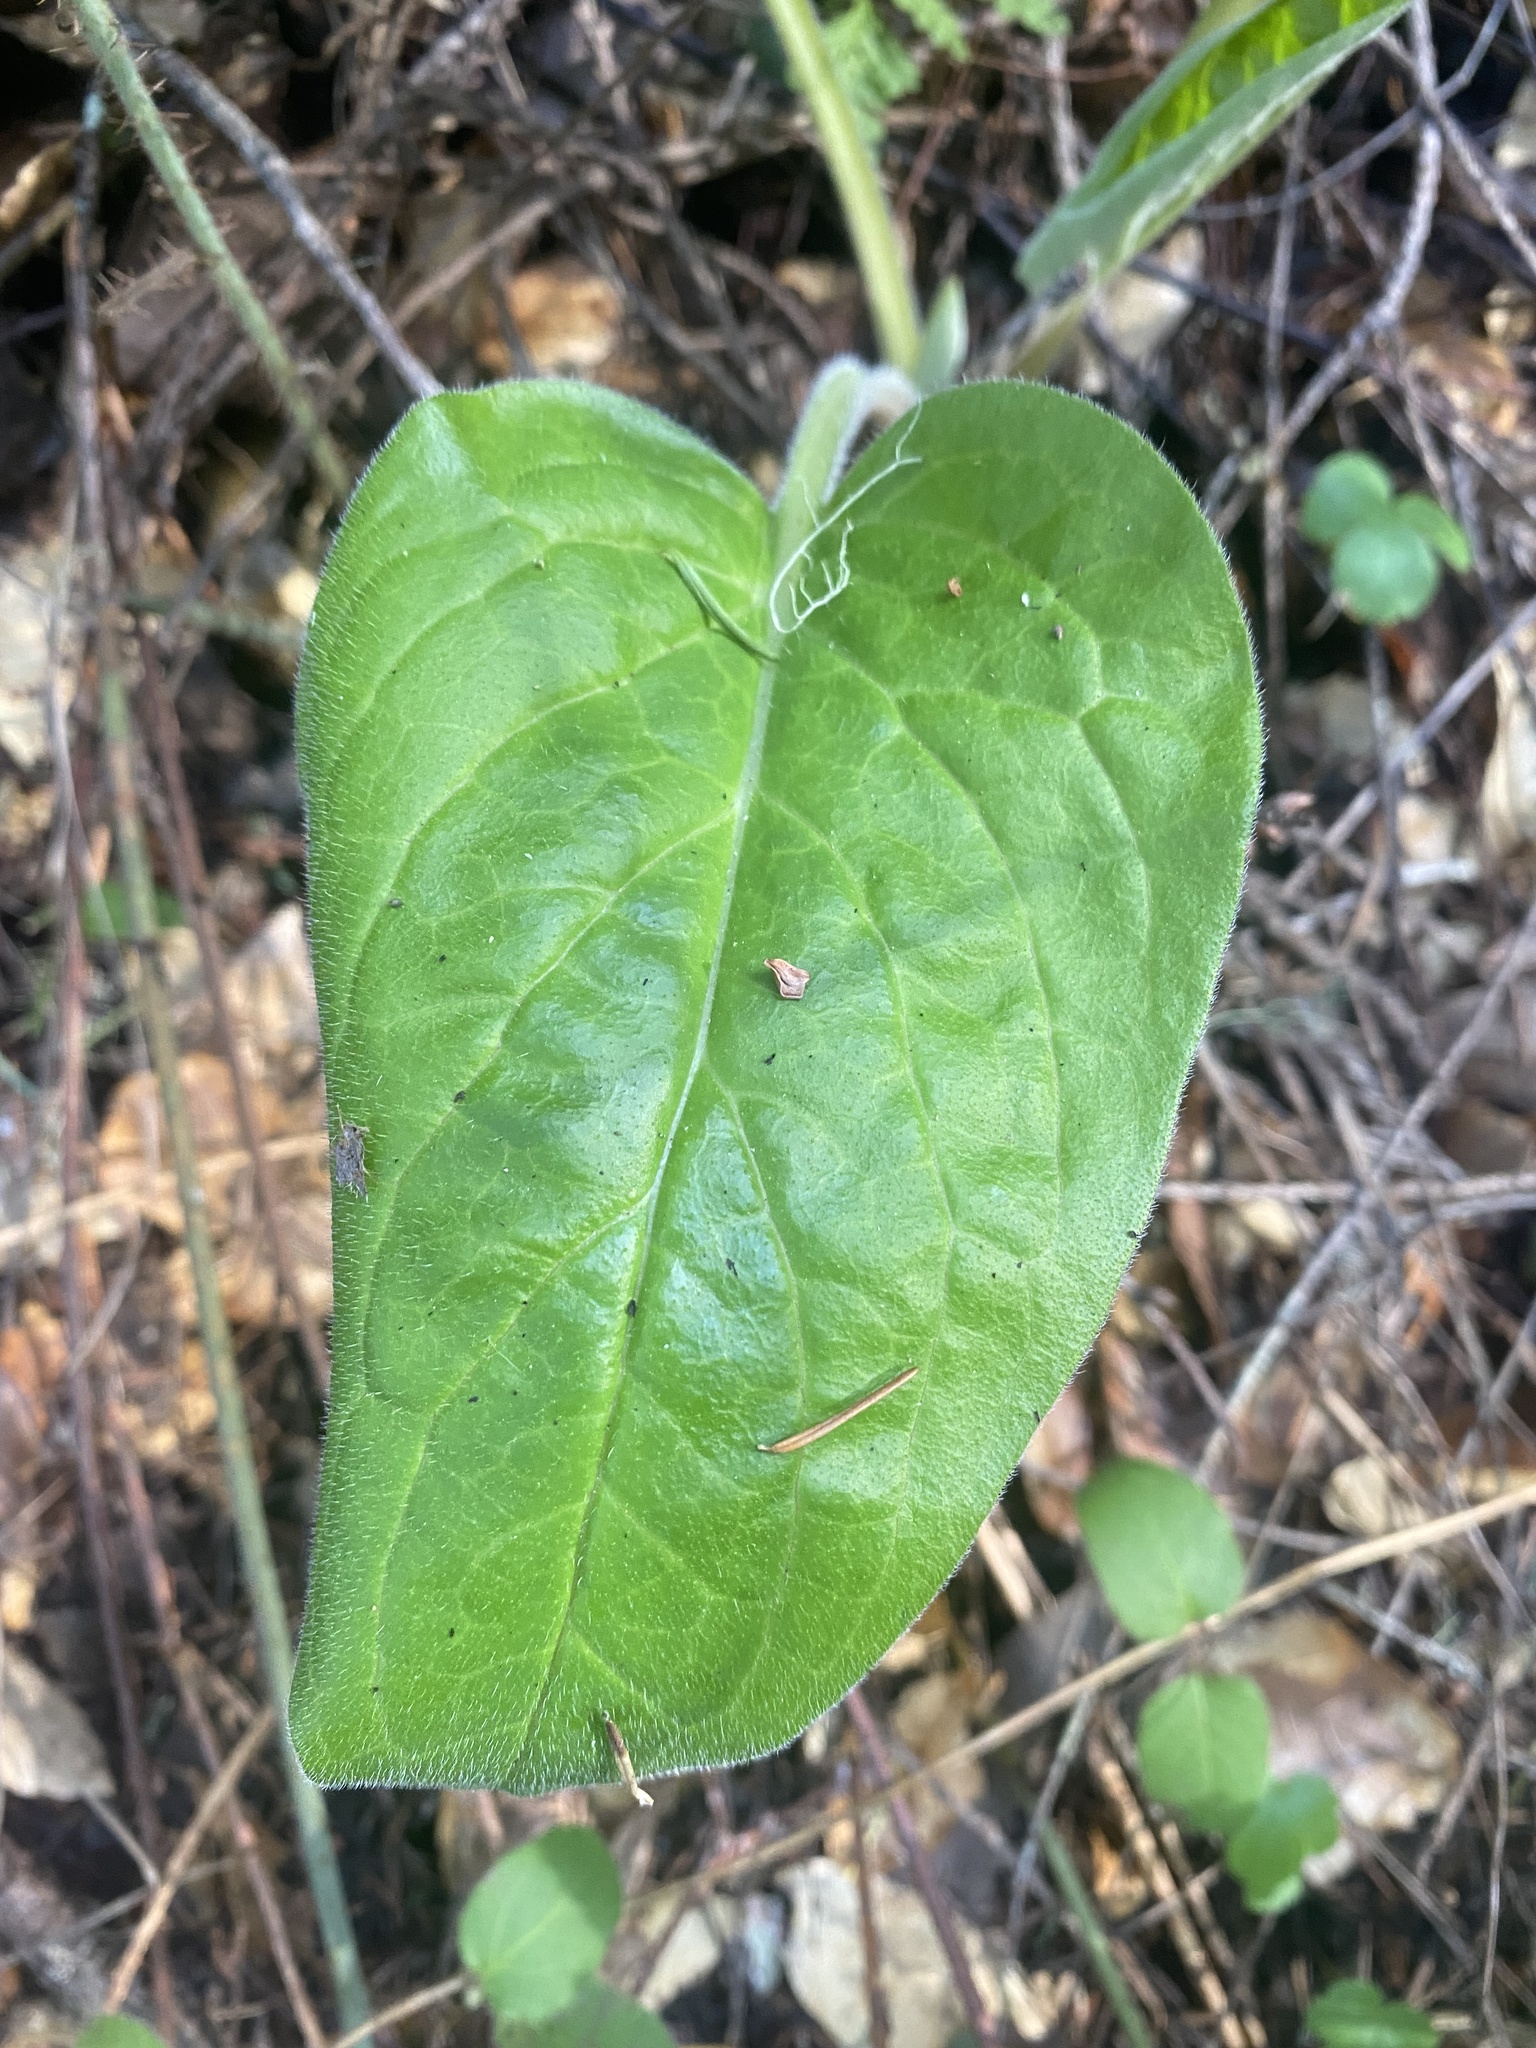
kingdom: Plantae
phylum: Tracheophyta
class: Magnoliopsida
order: Boraginales
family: Boraginaceae
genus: Adelinia
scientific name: Adelinia grande
